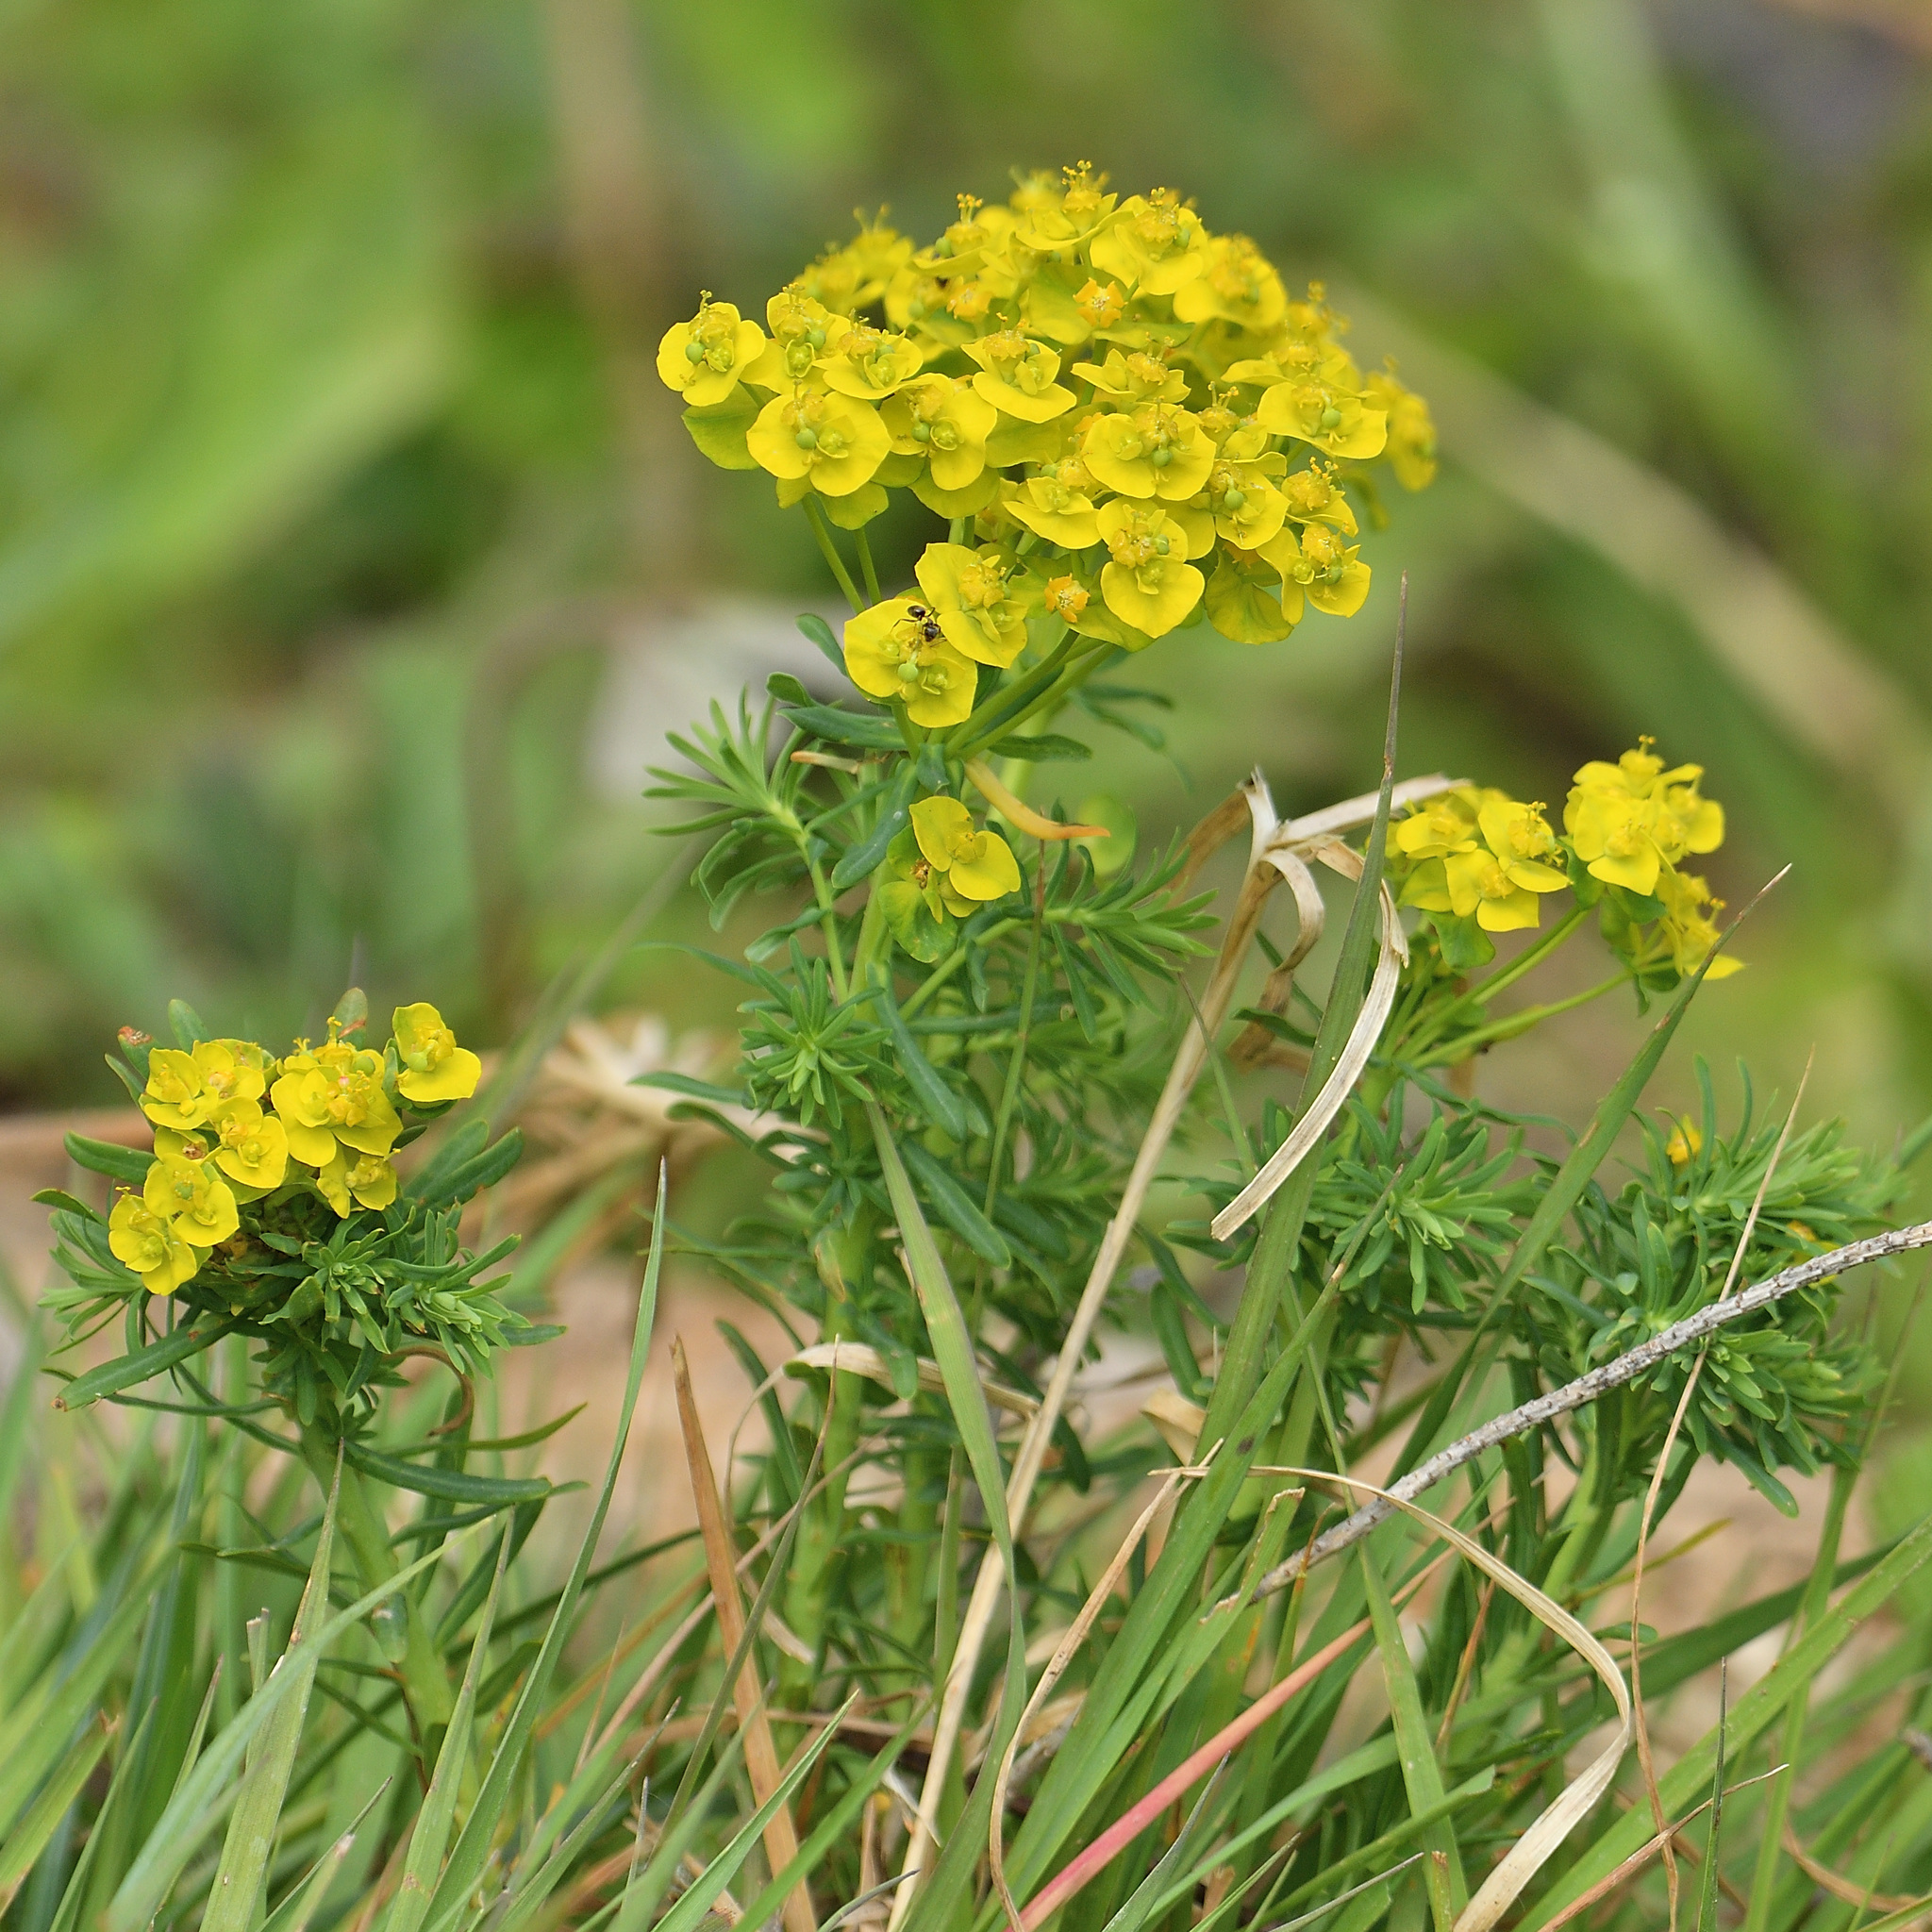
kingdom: Plantae
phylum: Tracheophyta
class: Magnoliopsida
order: Malpighiales
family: Euphorbiaceae
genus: Euphorbia
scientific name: Euphorbia cyparissias
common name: Cypress spurge
